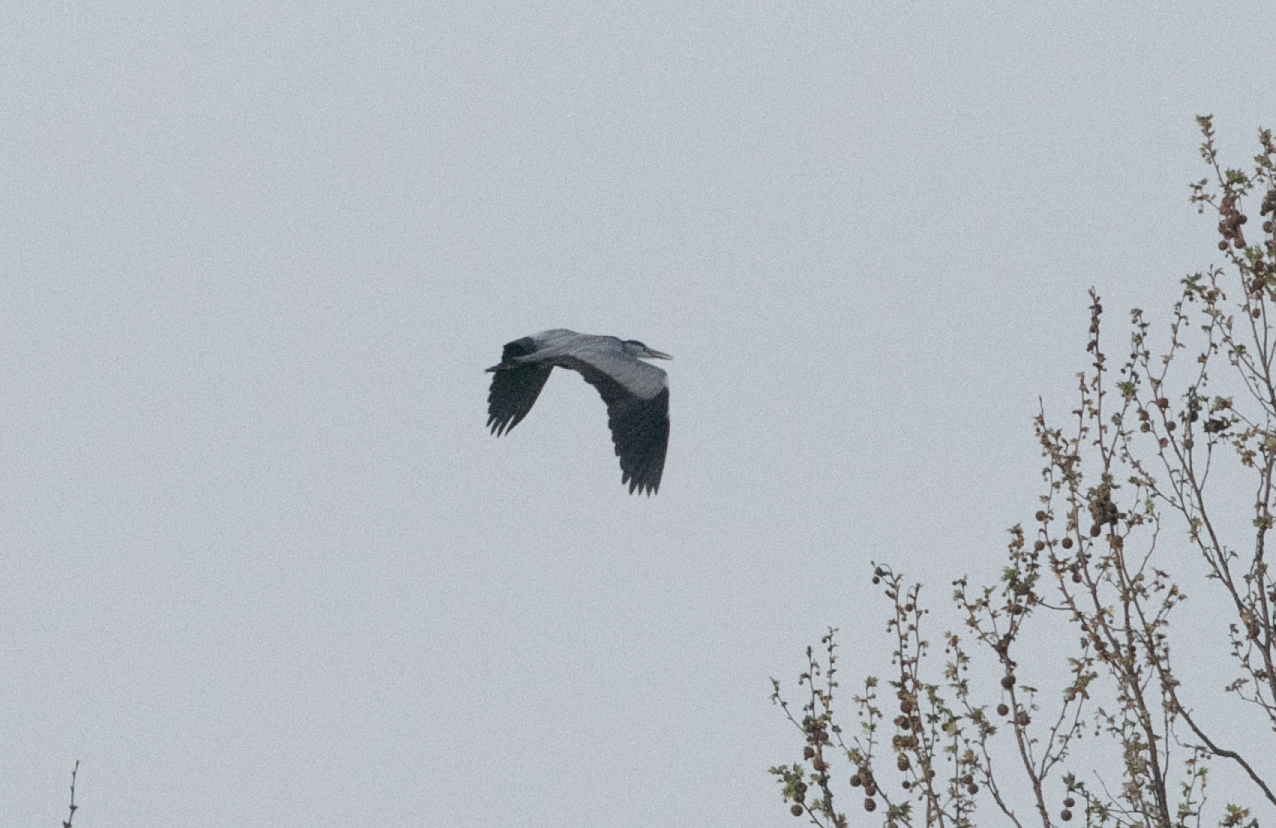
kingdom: Animalia
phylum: Chordata
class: Aves
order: Pelecaniformes
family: Ardeidae
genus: Ardea
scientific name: Ardea cinerea
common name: Grey heron
